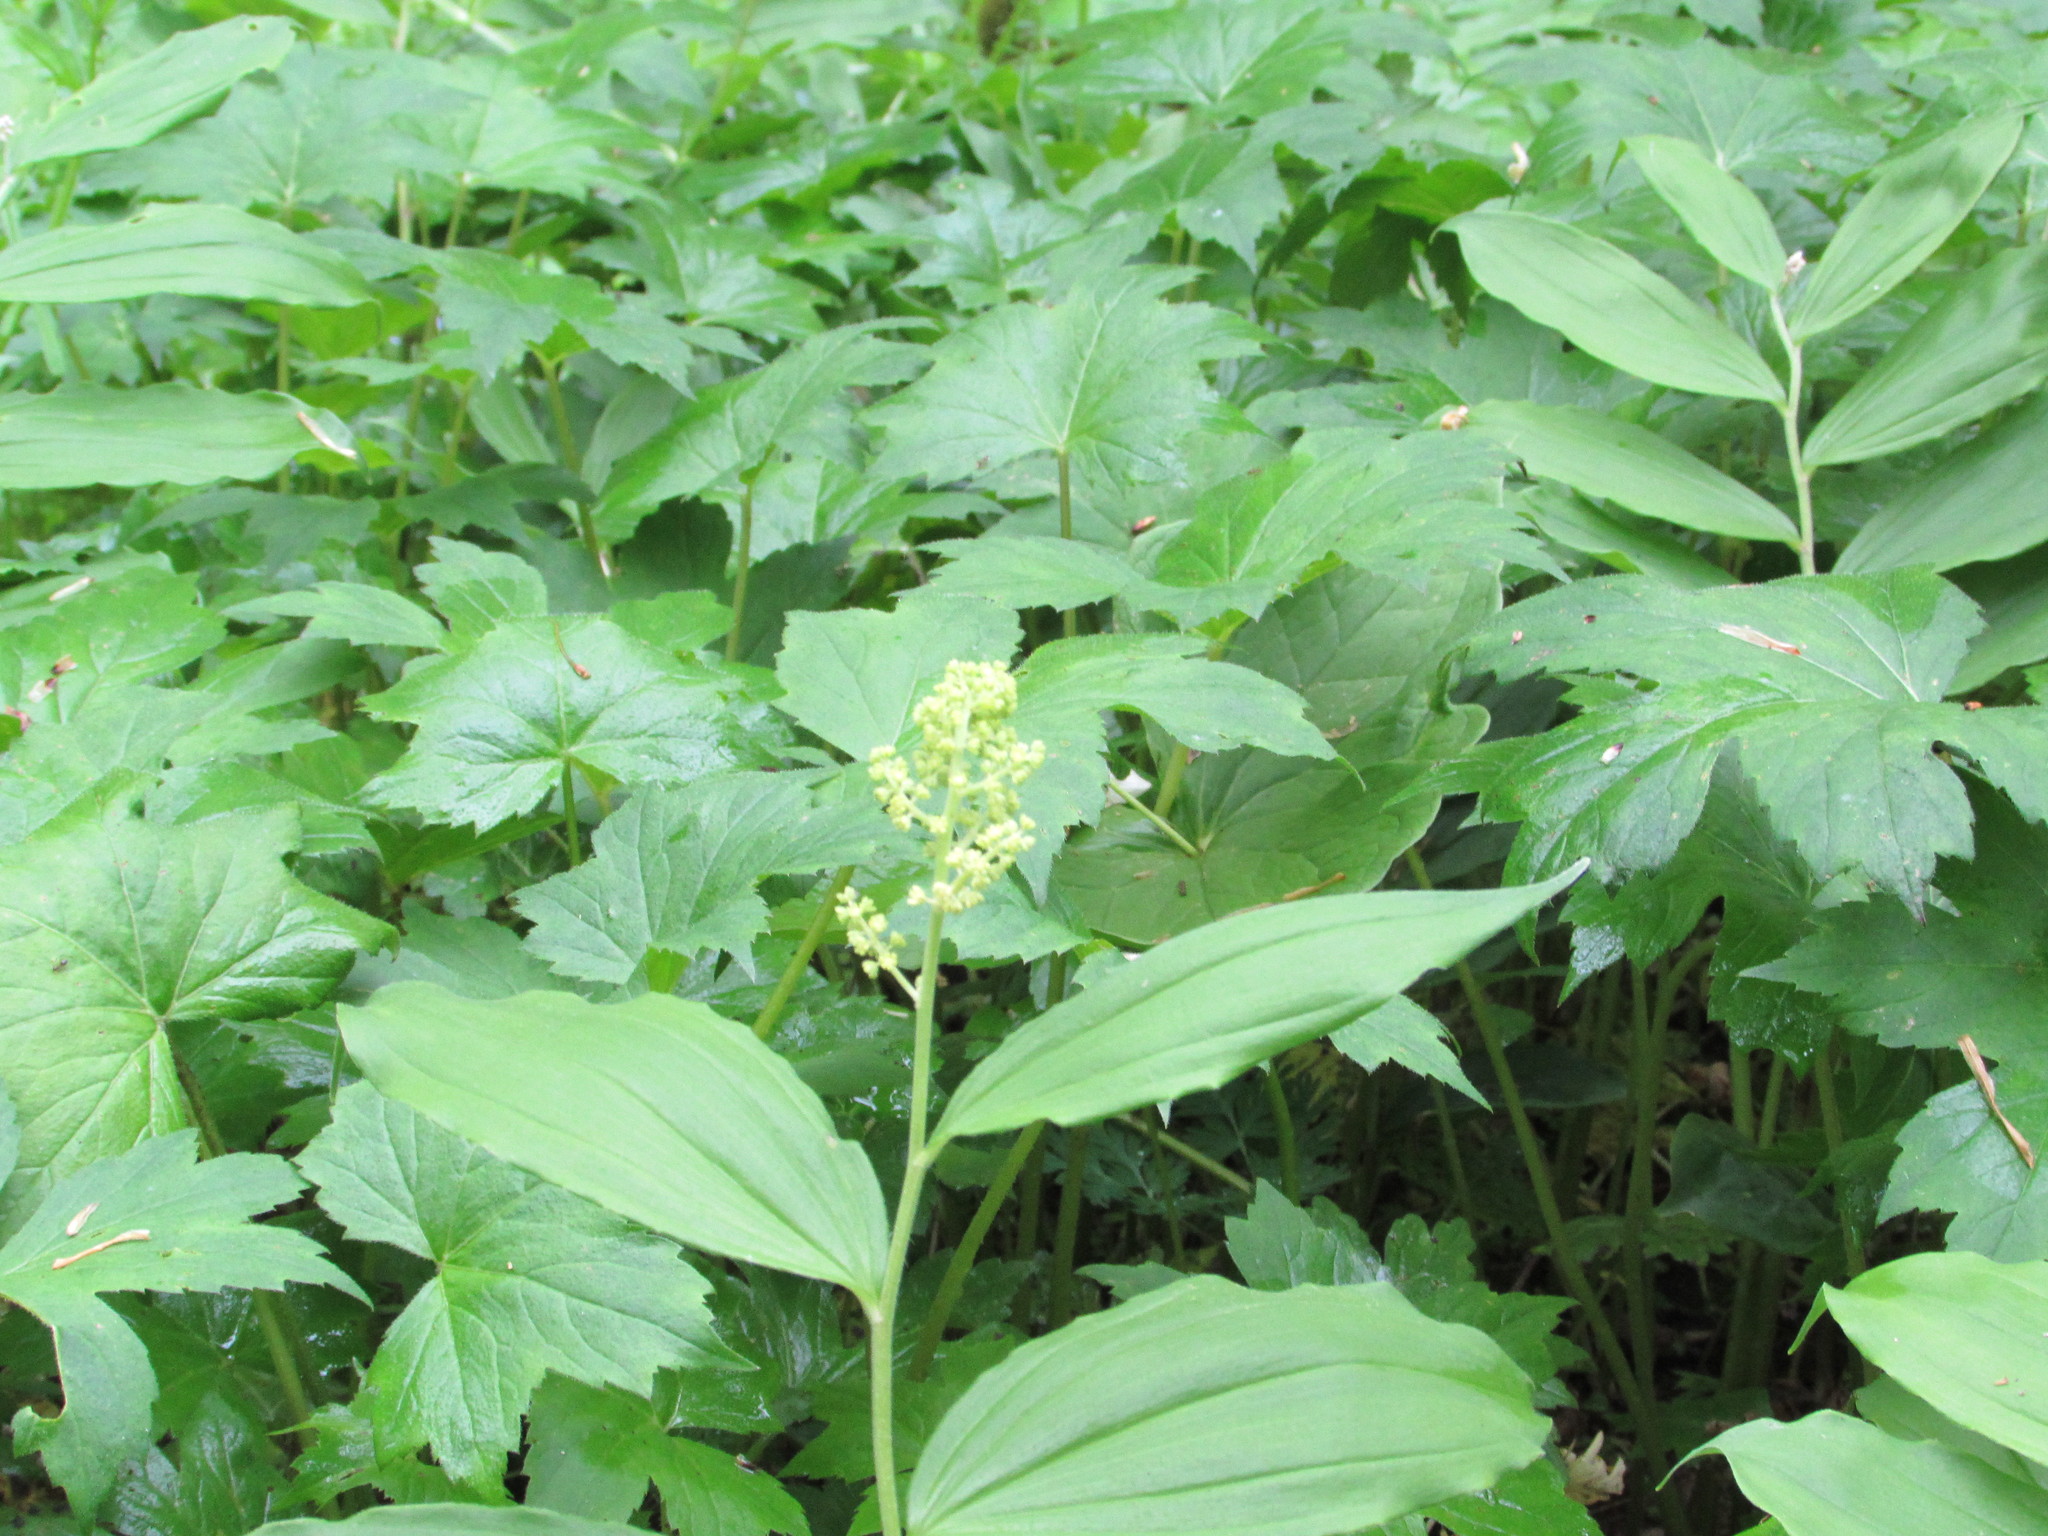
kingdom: Plantae
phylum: Tracheophyta
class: Liliopsida
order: Asparagales
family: Asparagaceae
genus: Maianthemum
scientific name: Maianthemum racemosum
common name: False spikenard
